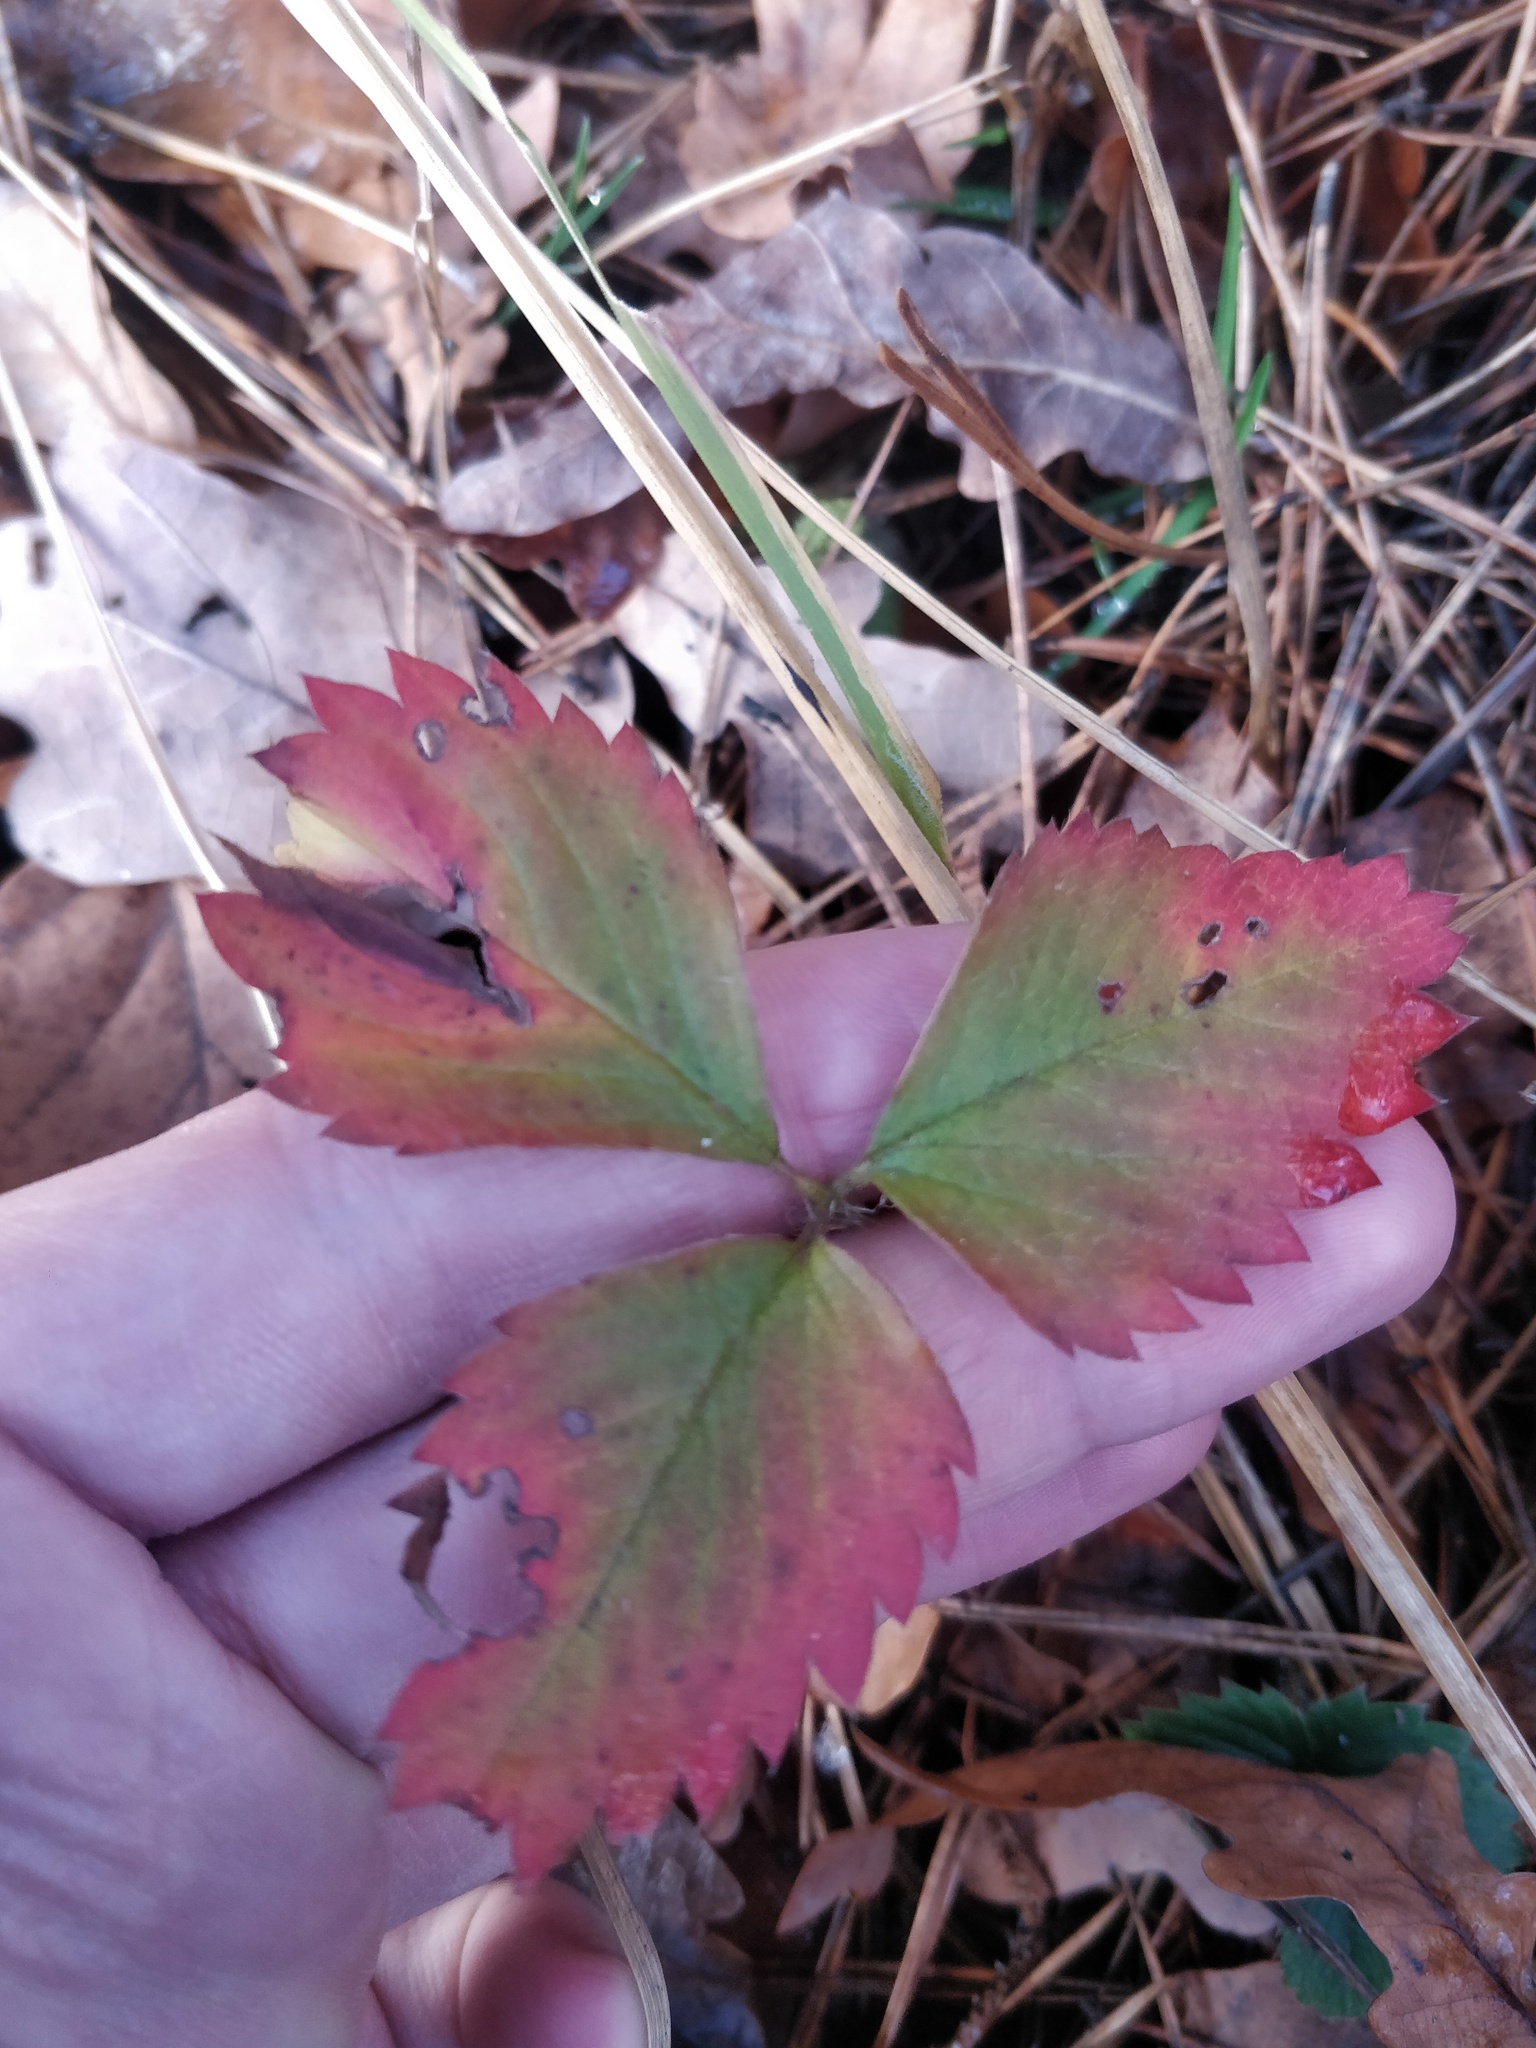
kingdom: Plantae
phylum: Tracheophyta
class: Magnoliopsida
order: Rosales
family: Rosaceae
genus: Fragaria
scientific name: Fragaria moschata
